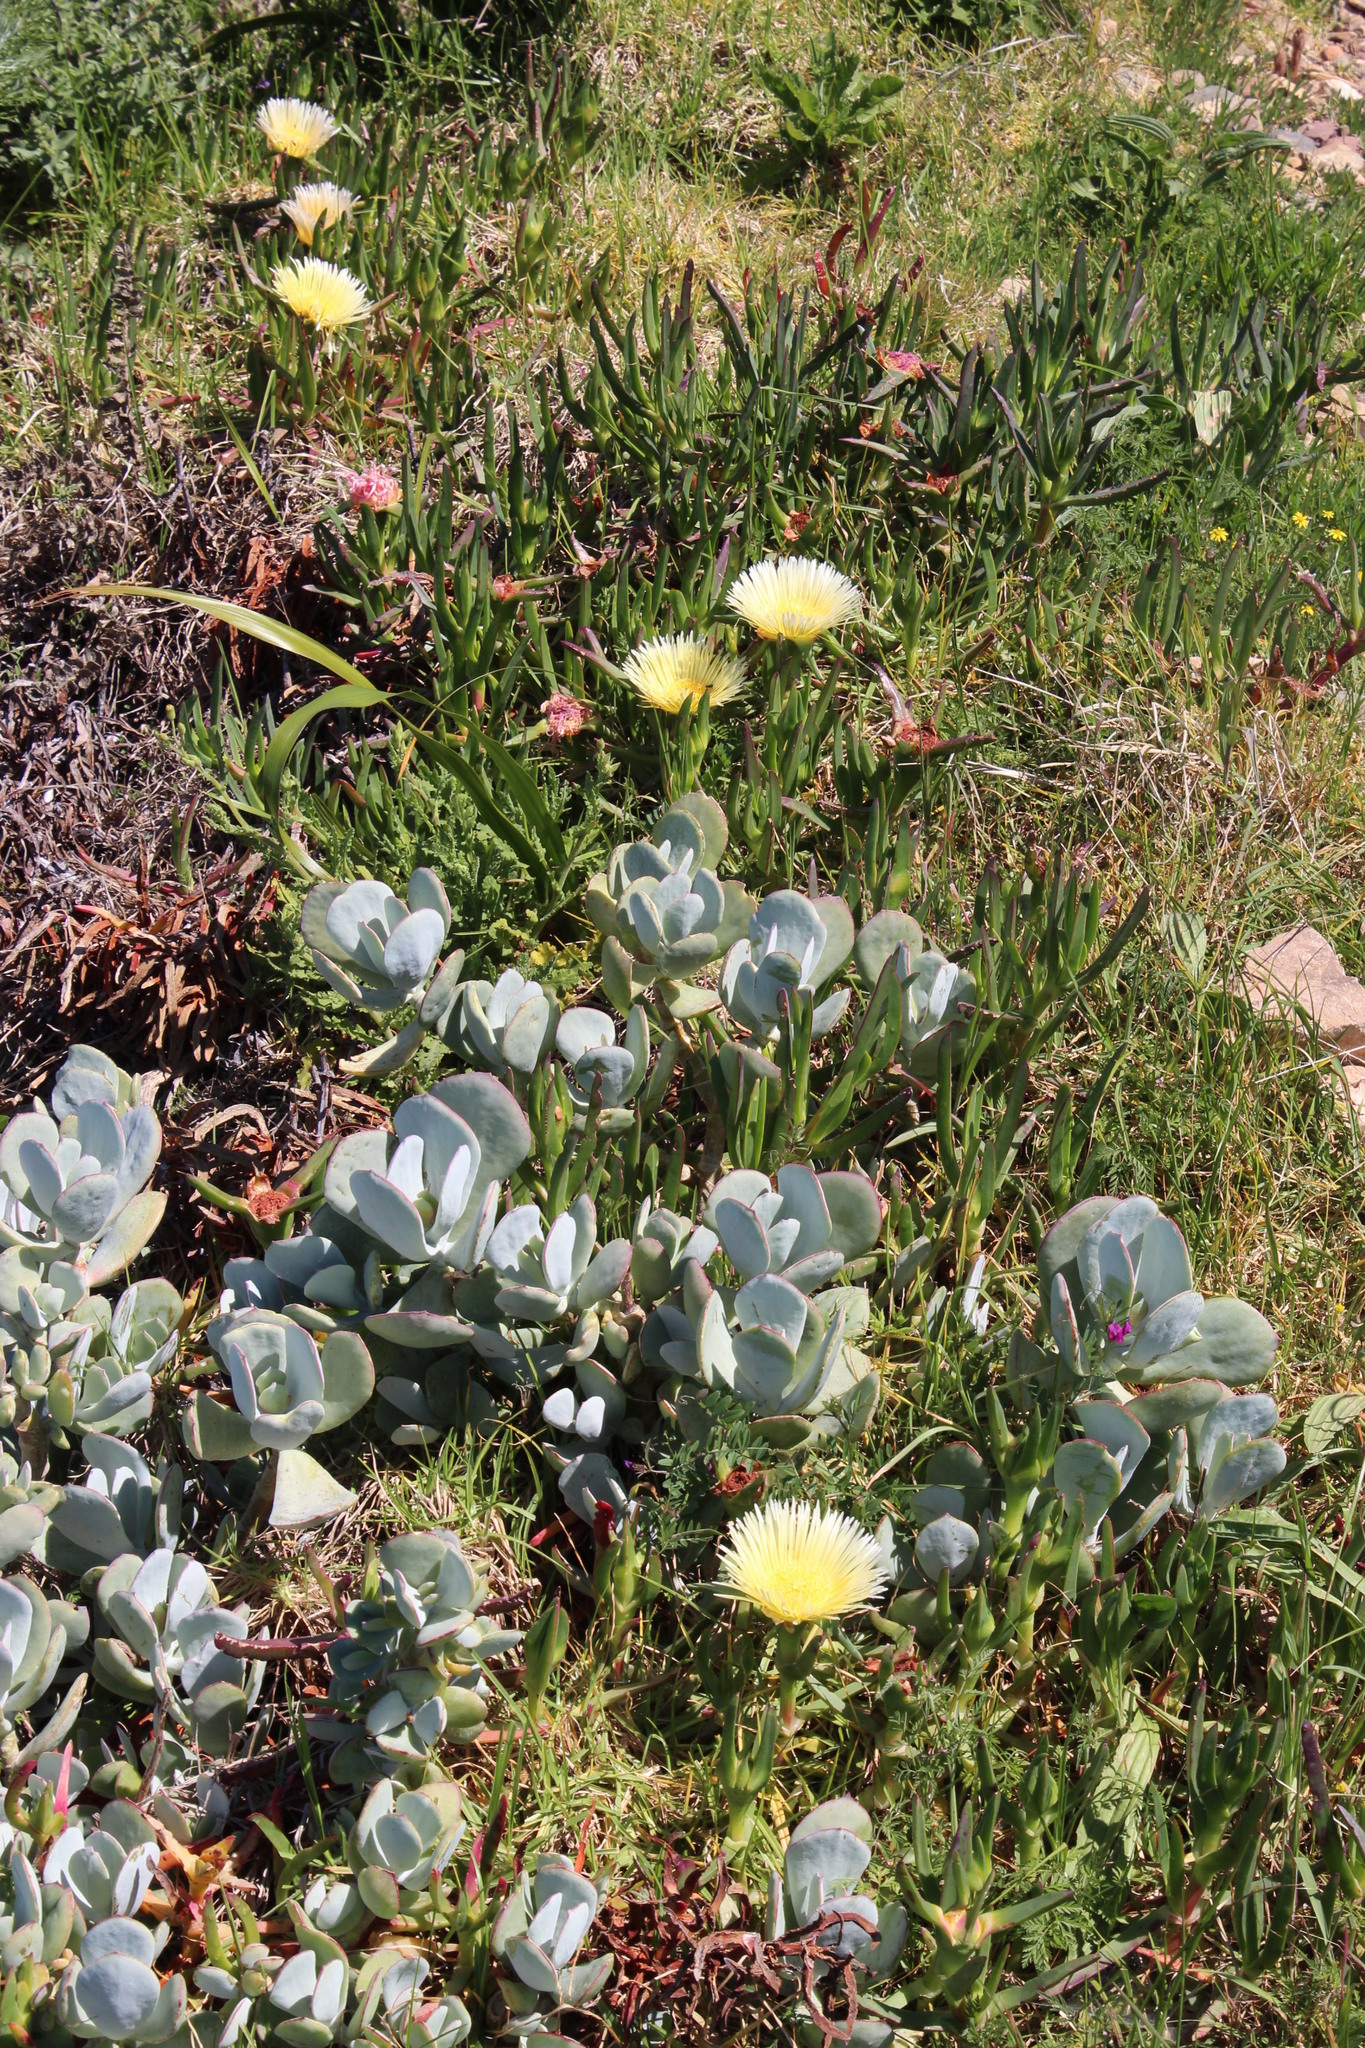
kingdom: Plantae
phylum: Tracheophyta
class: Magnoliopsida
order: Caryophyllales
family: Aizoaceae
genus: Carpobrotus
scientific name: Carpobrotus edulis
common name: Hottentot-fig
